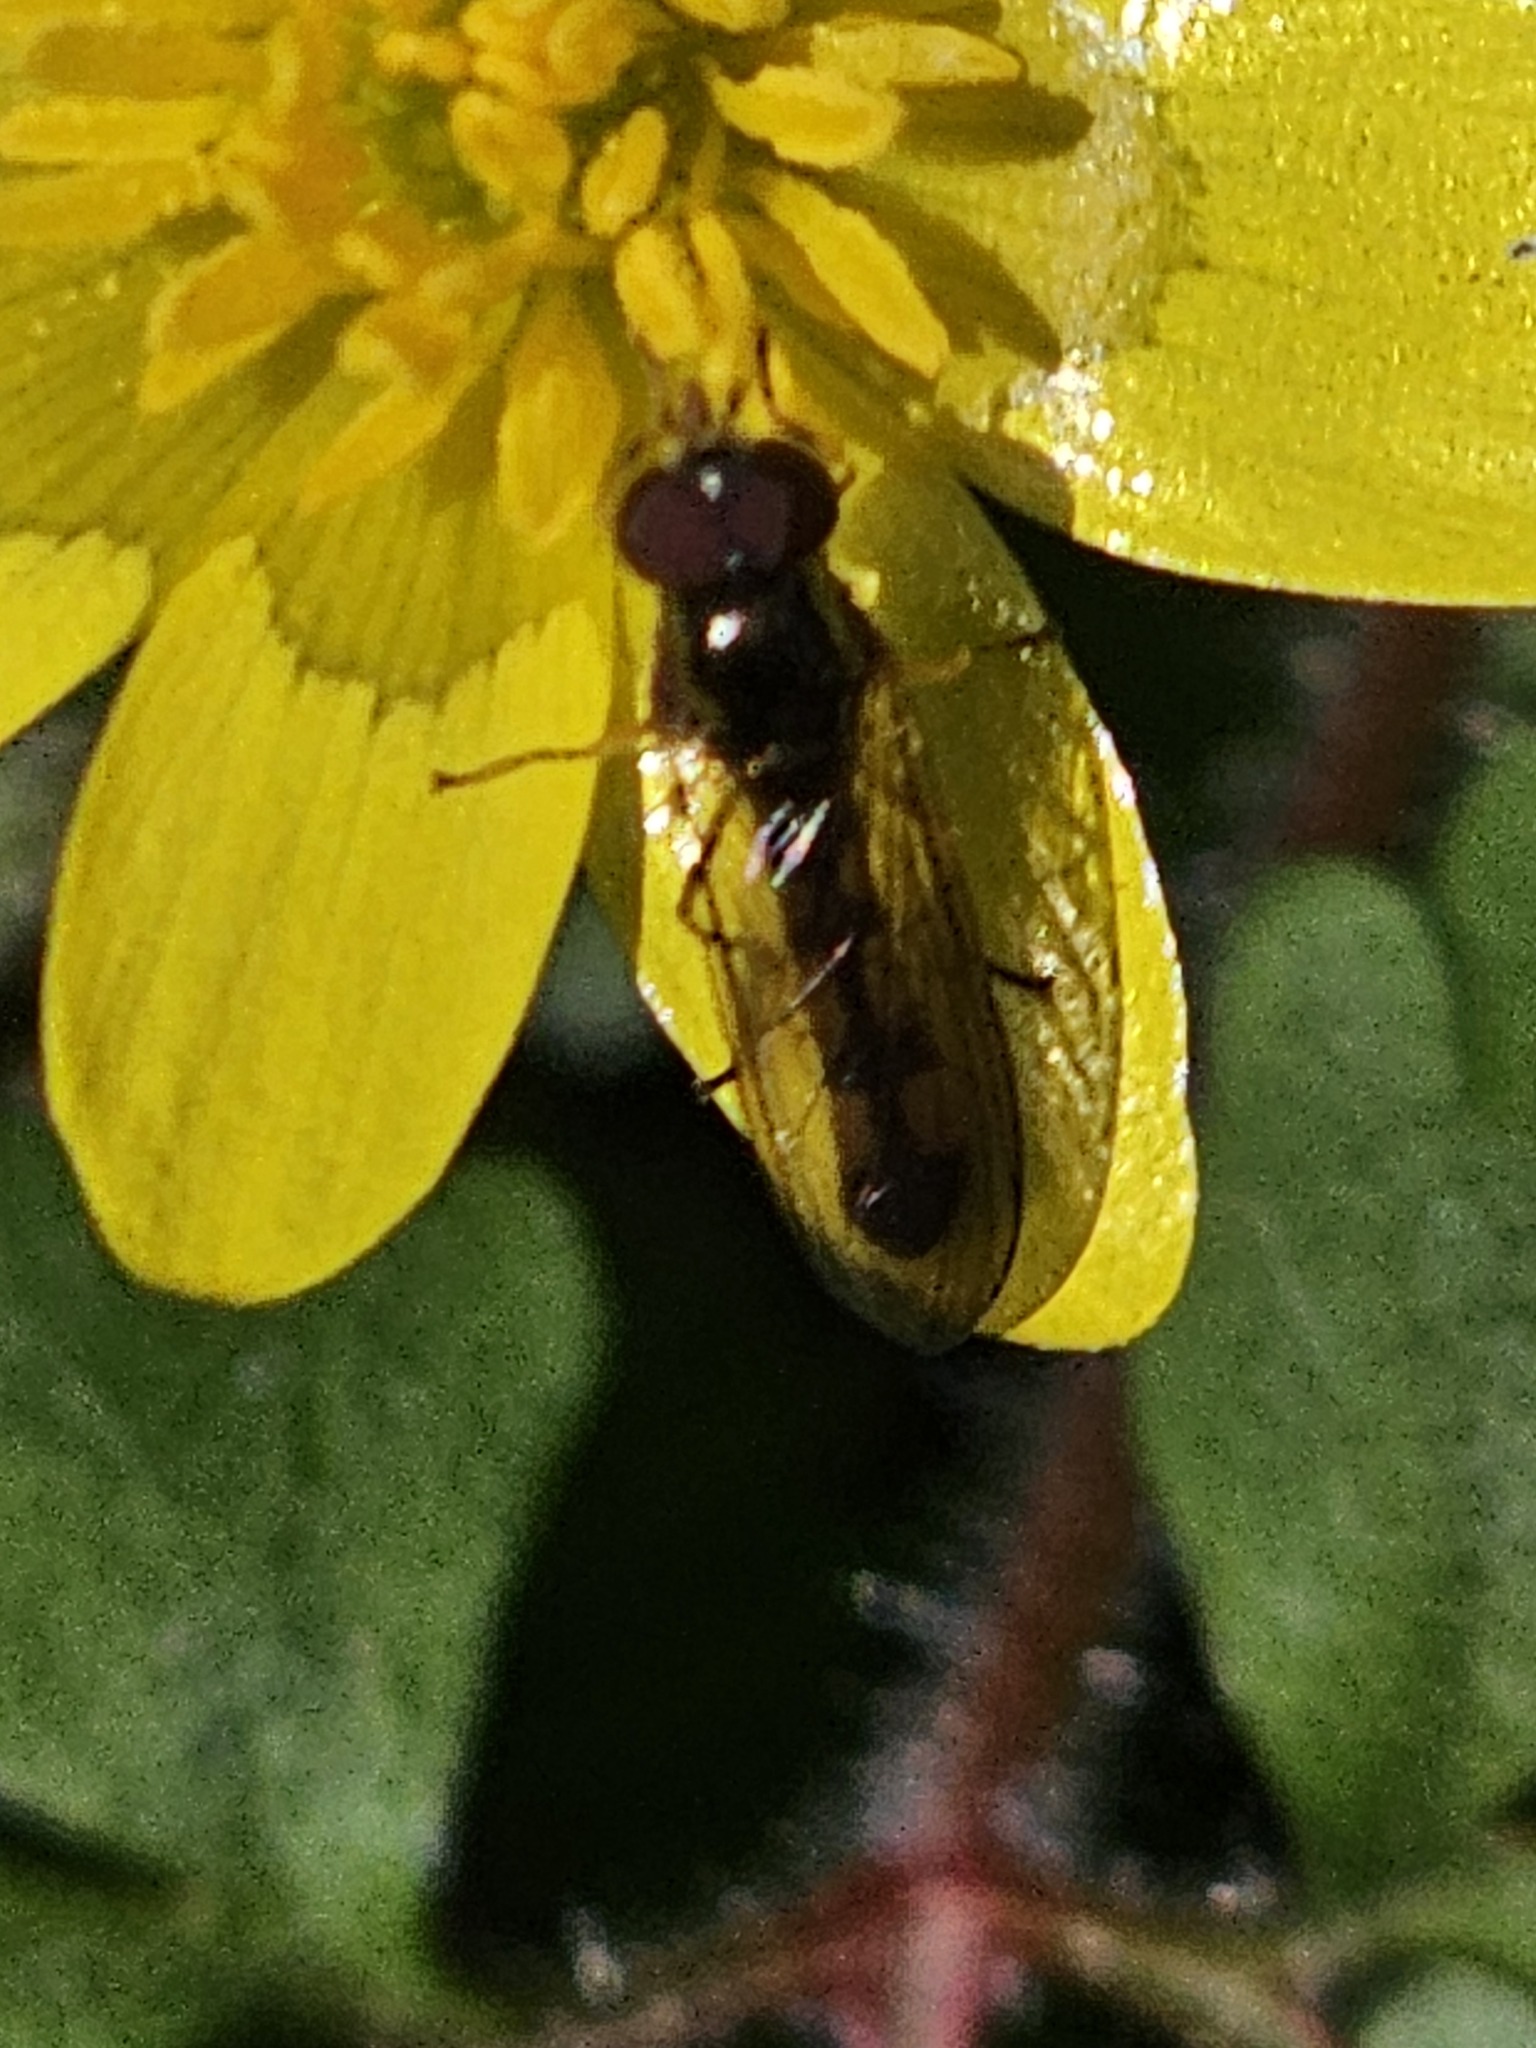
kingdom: Animalia
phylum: Arthropoda
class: Insecta
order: Diptera
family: Syrphidae
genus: Melanostoma
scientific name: Melanostoma scalare
